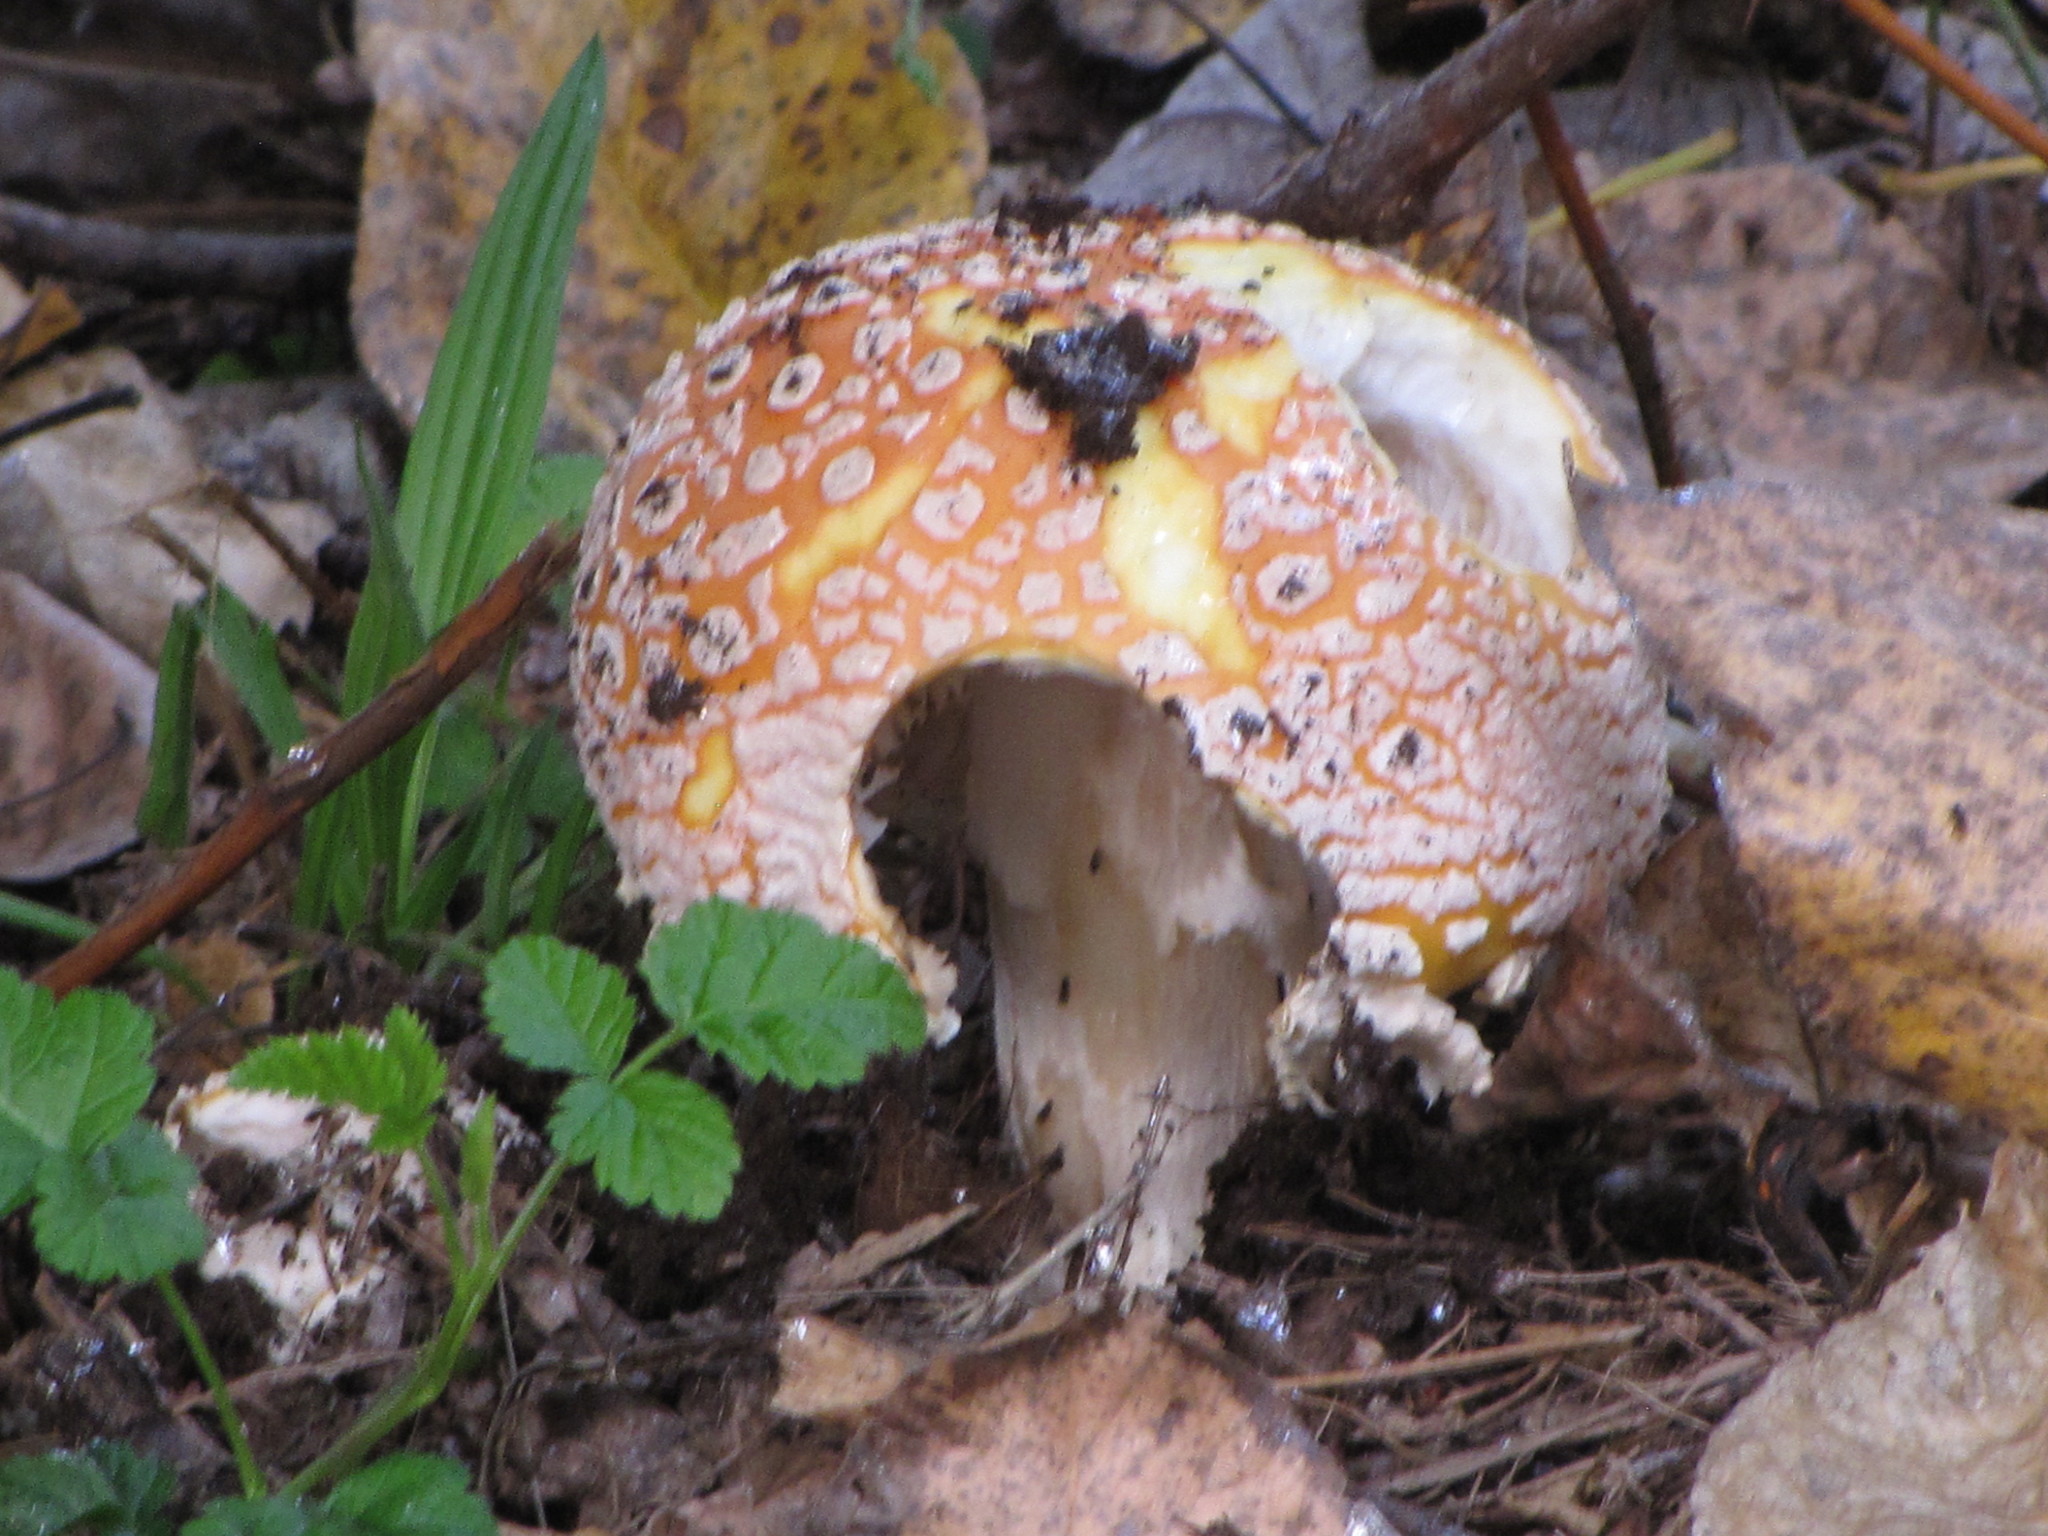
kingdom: Fungi
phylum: Basidiomycota
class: Agaricomycetes
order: Agaricales
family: Amanitaceae
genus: Amanita
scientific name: Amanita muscaria
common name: Fly agaric
